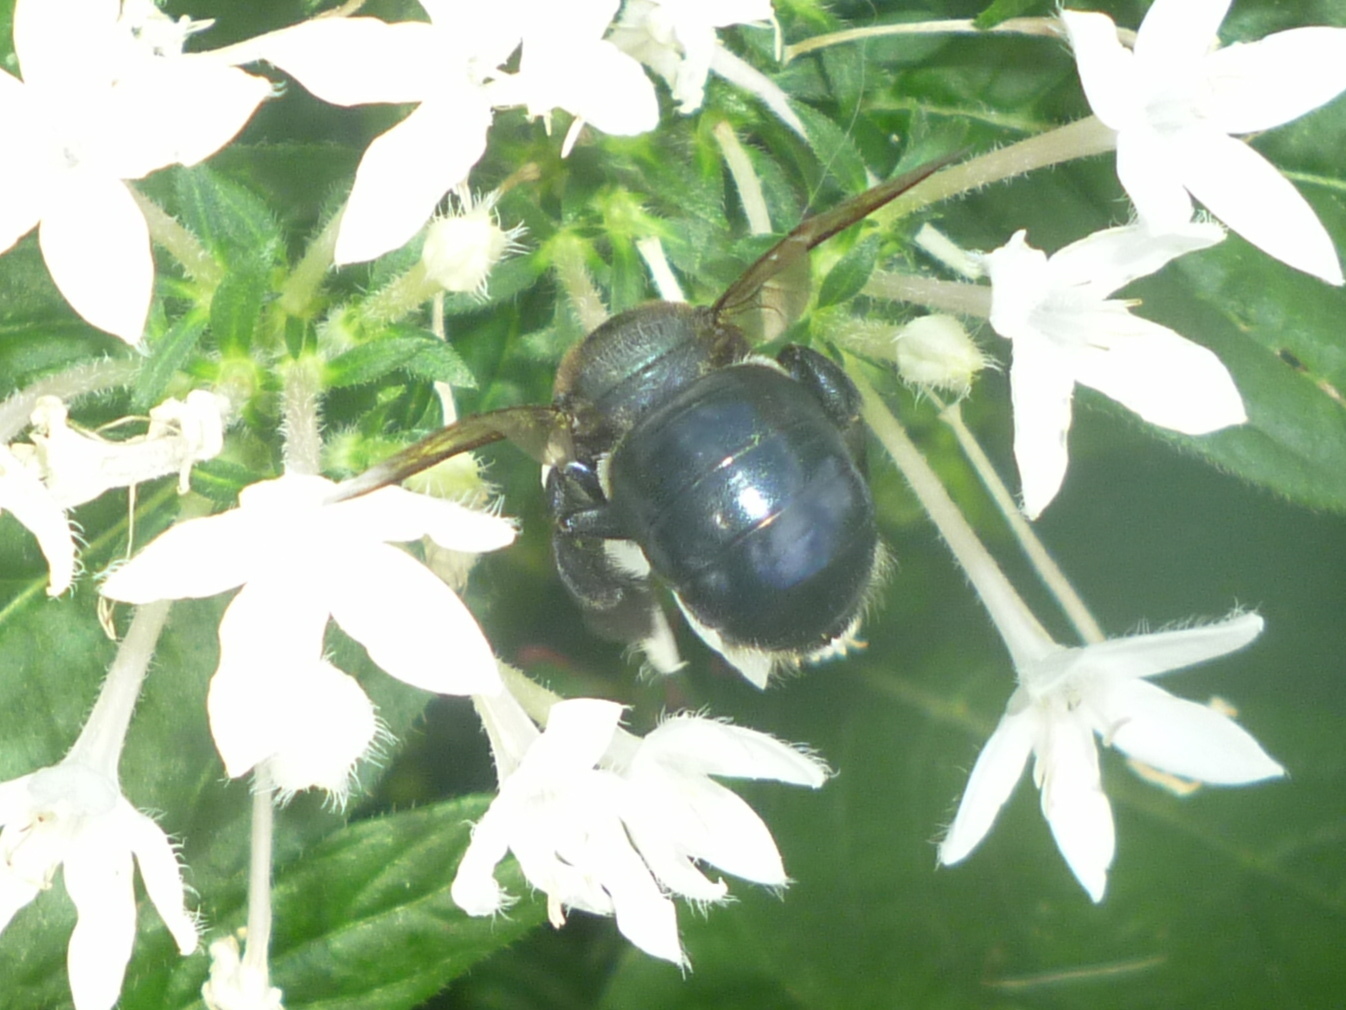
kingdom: Animalia
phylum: Arthropoda
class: Insecta
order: Hymenoptera
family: Apidae
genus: Xylocopa
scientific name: Xylocopa micans
